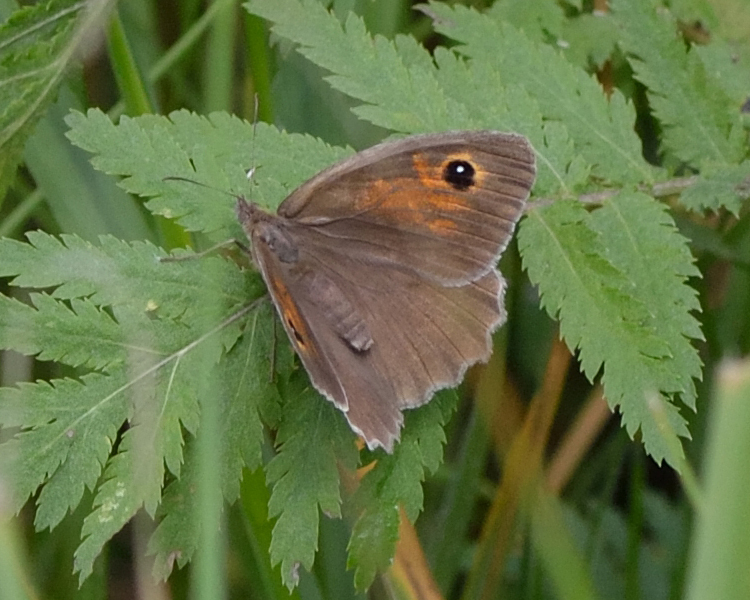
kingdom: Animalia
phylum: Arthropoda
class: Insecta
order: Lepidoptera
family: Nymphalidae
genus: Maniola
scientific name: Maniola jurtina
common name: Meadow brown
